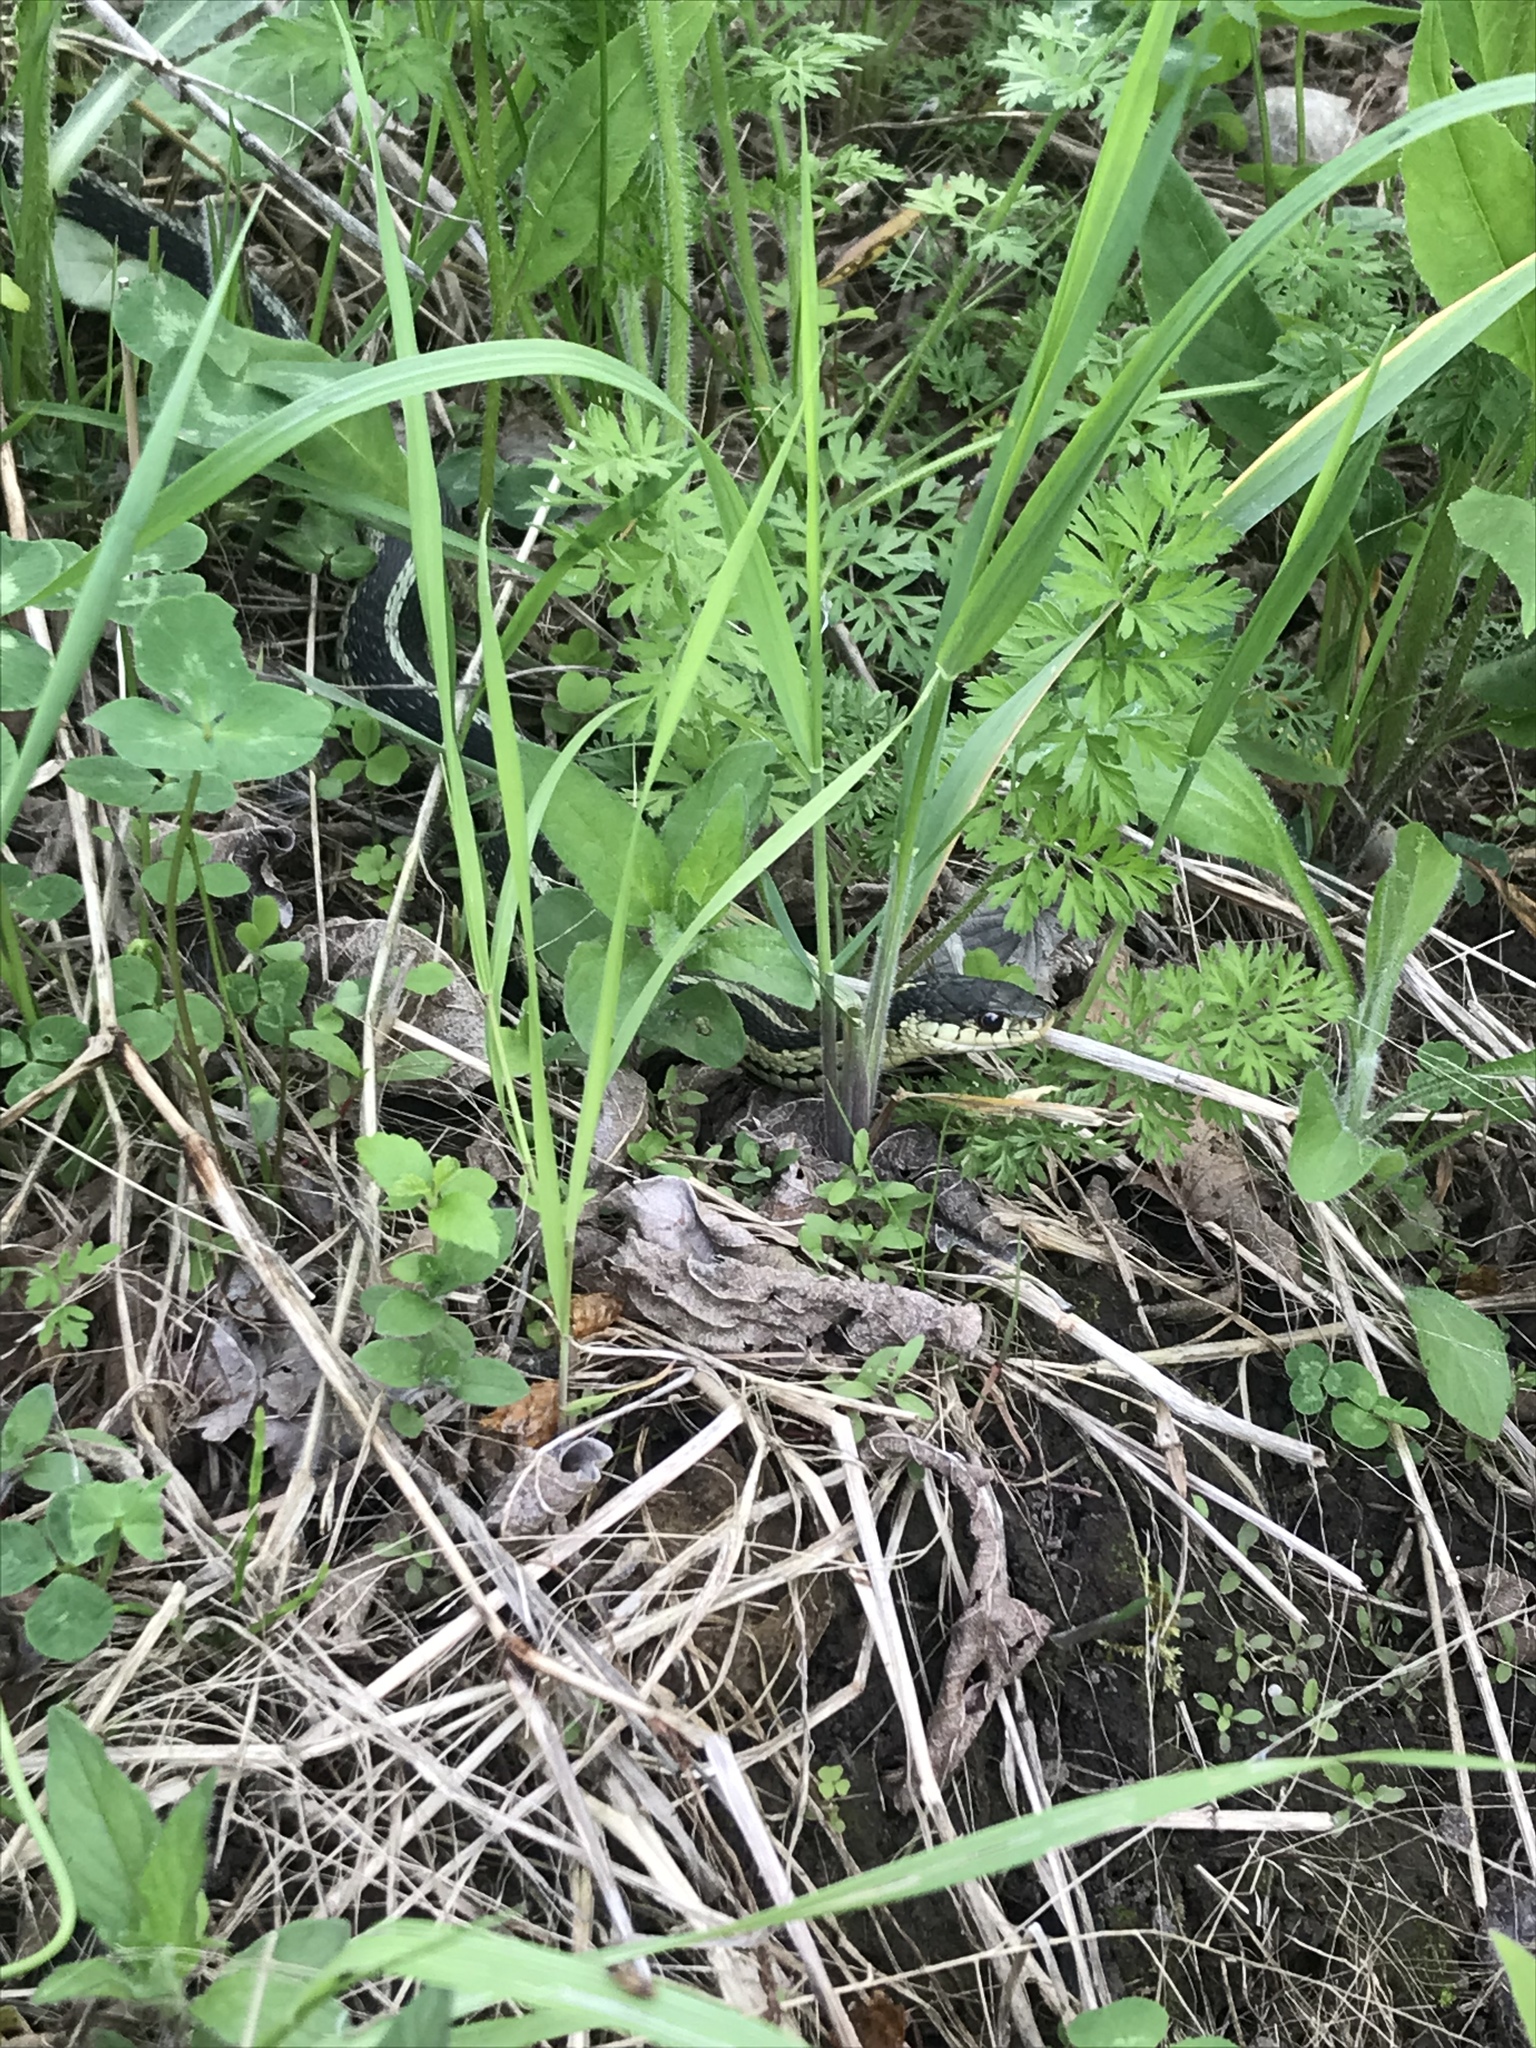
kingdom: Animalia
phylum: Chordata
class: Squamata
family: Colubridae
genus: Thamnophis
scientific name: Thamnophis sirtalis
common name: Common garter snake
